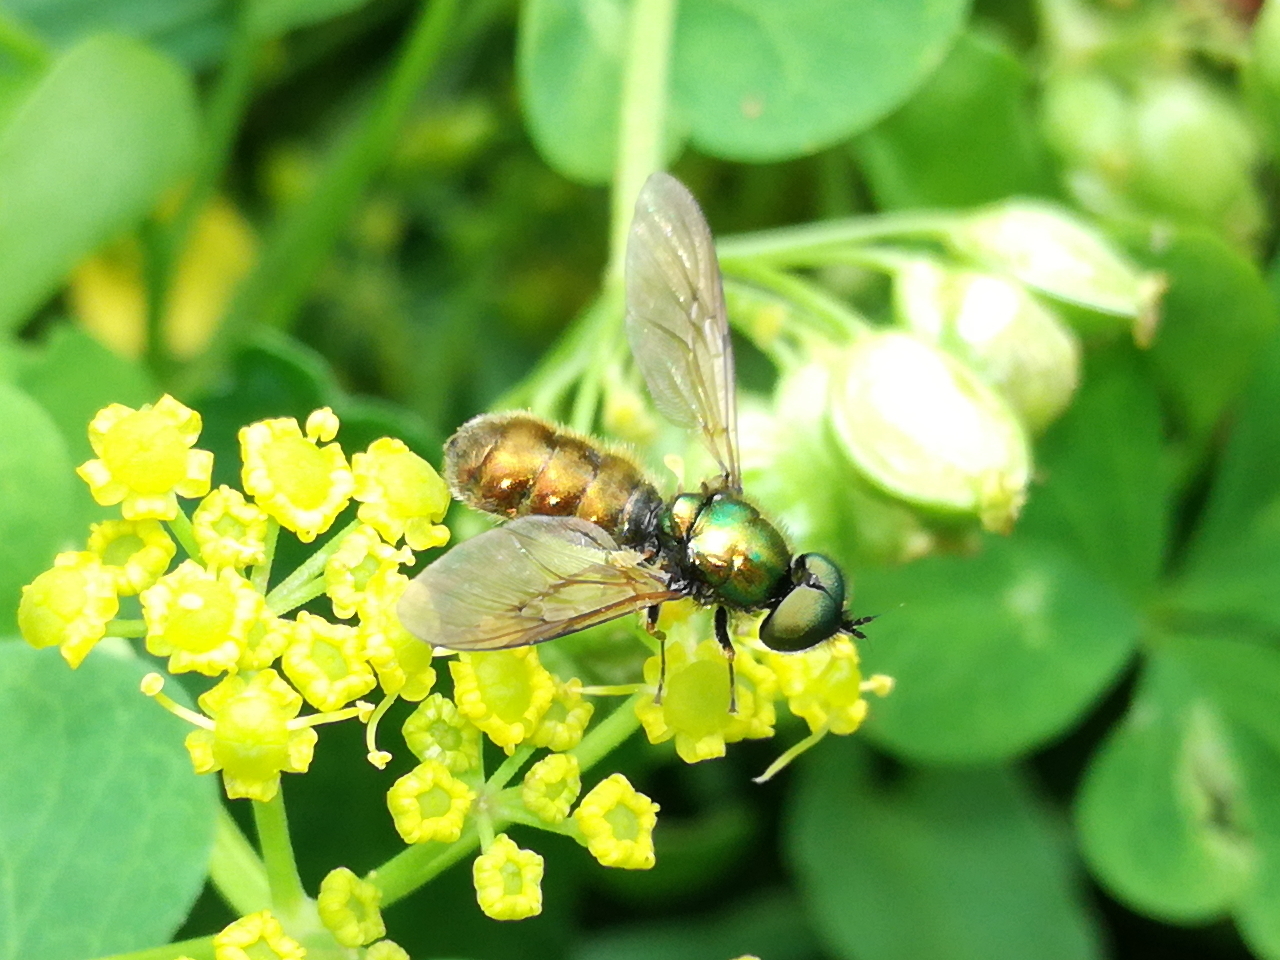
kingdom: Animalia
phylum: Arthropoda
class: Insecta
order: Diptera
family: Stratiomyidae
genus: Chloromyia
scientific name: Chloromyia formosa
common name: Soldier fly
